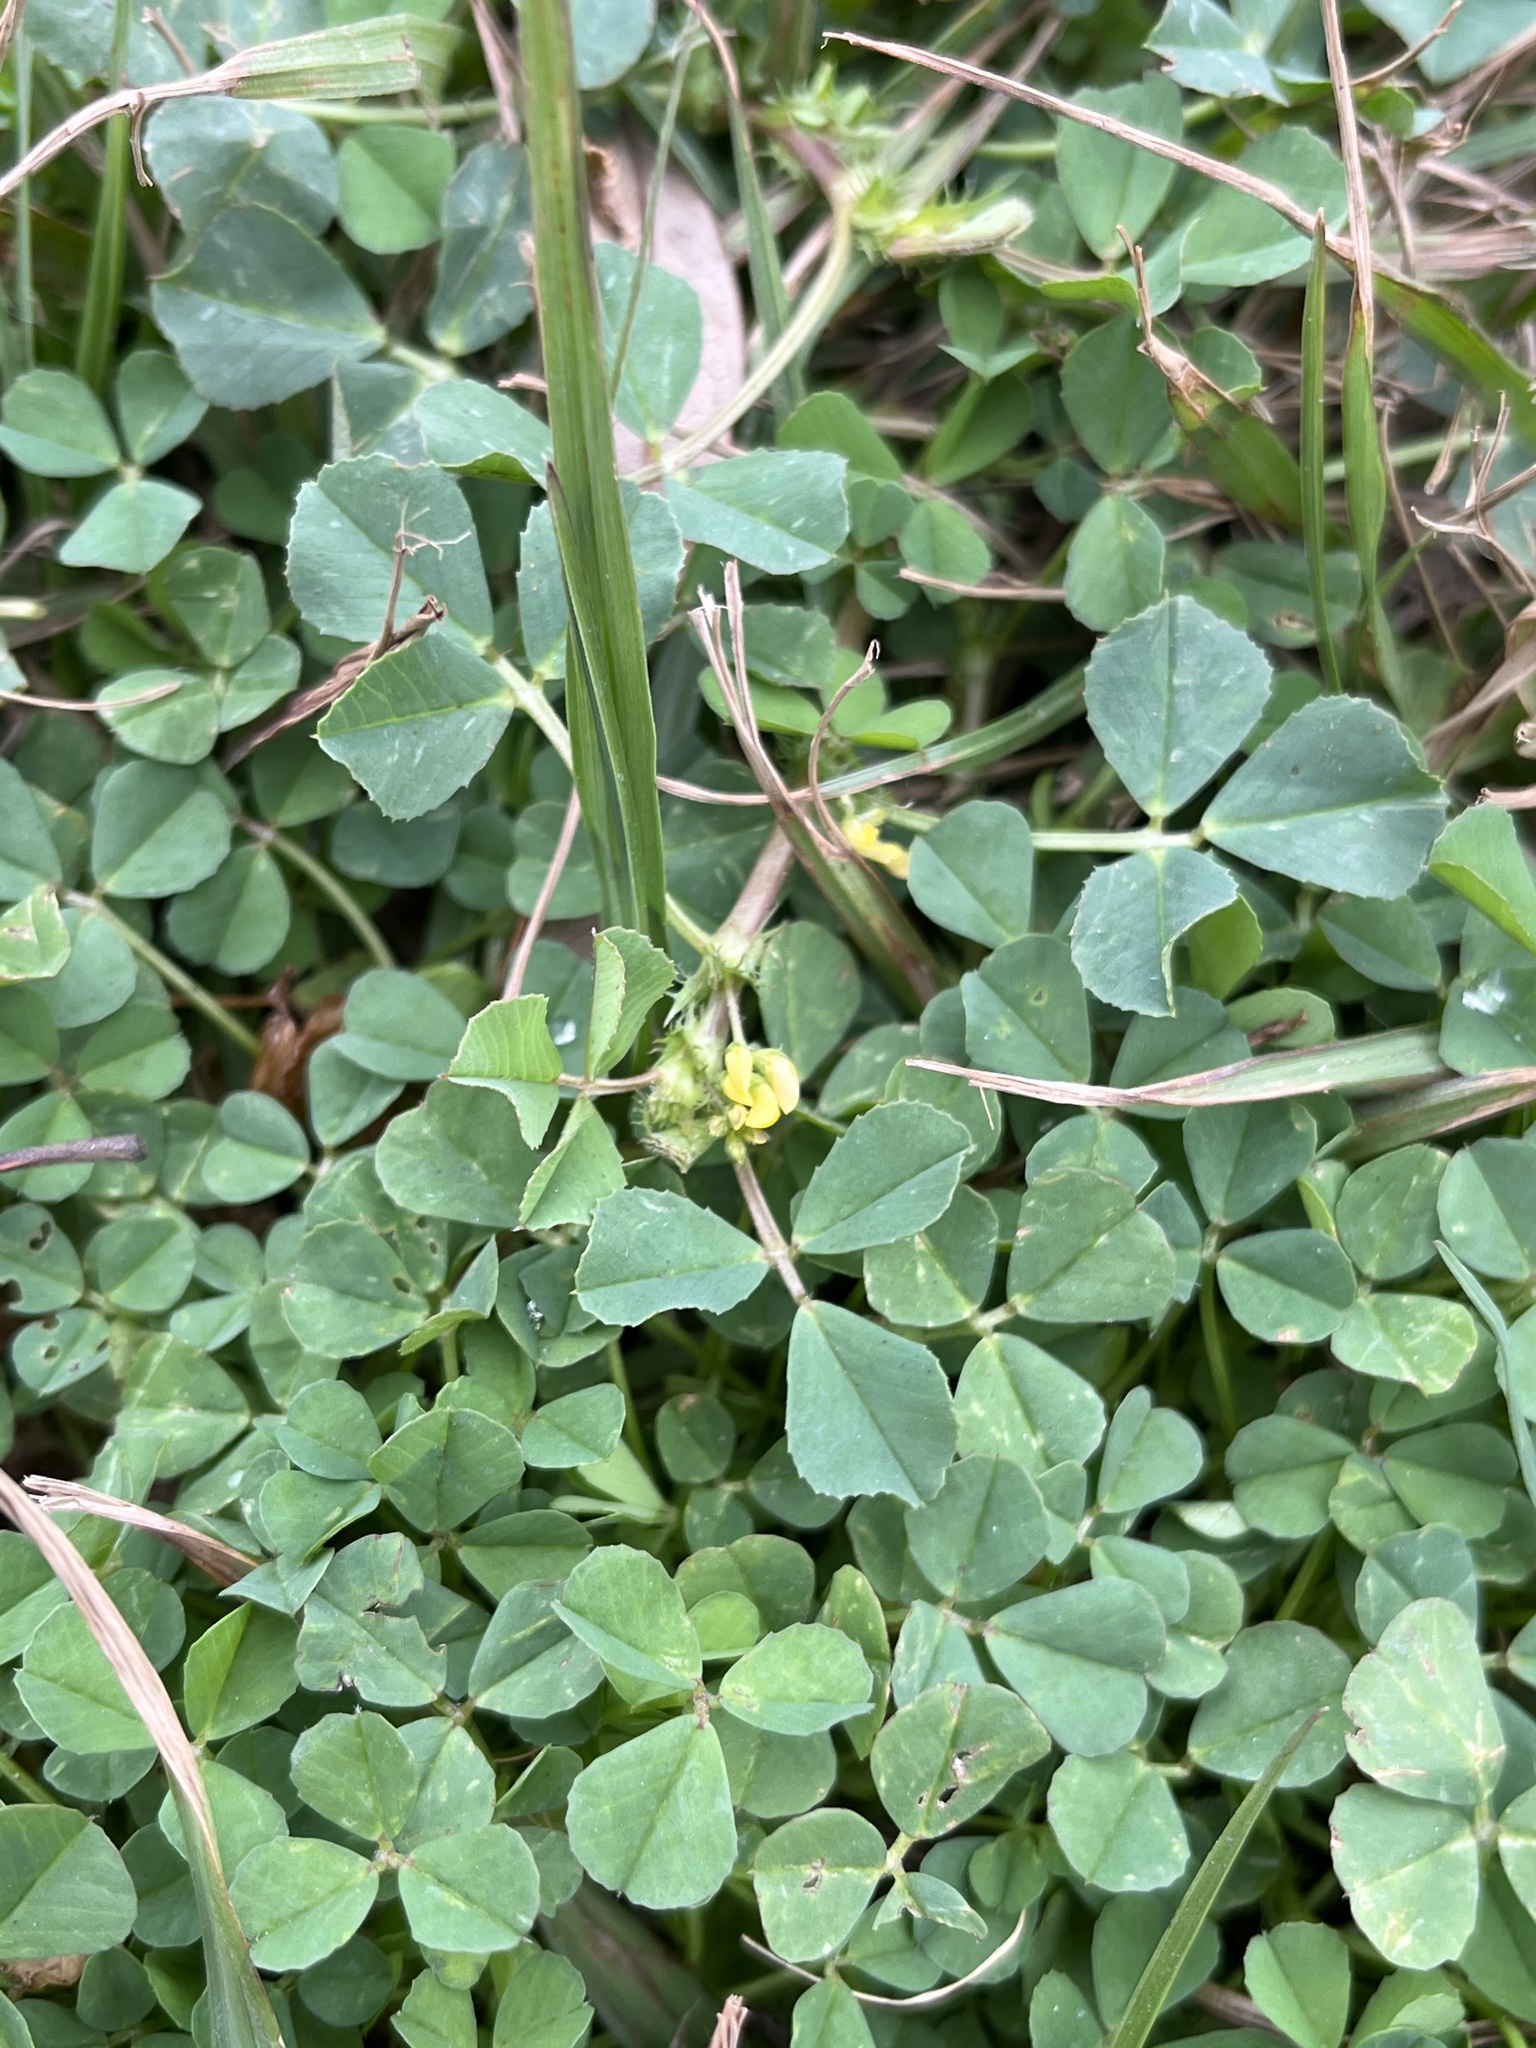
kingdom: Plantae
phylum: Tracheophyta
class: Magnoliopsida
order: Fabales
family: Fabaceae
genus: Medicago
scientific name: Medicago polymorpha
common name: Burclover
